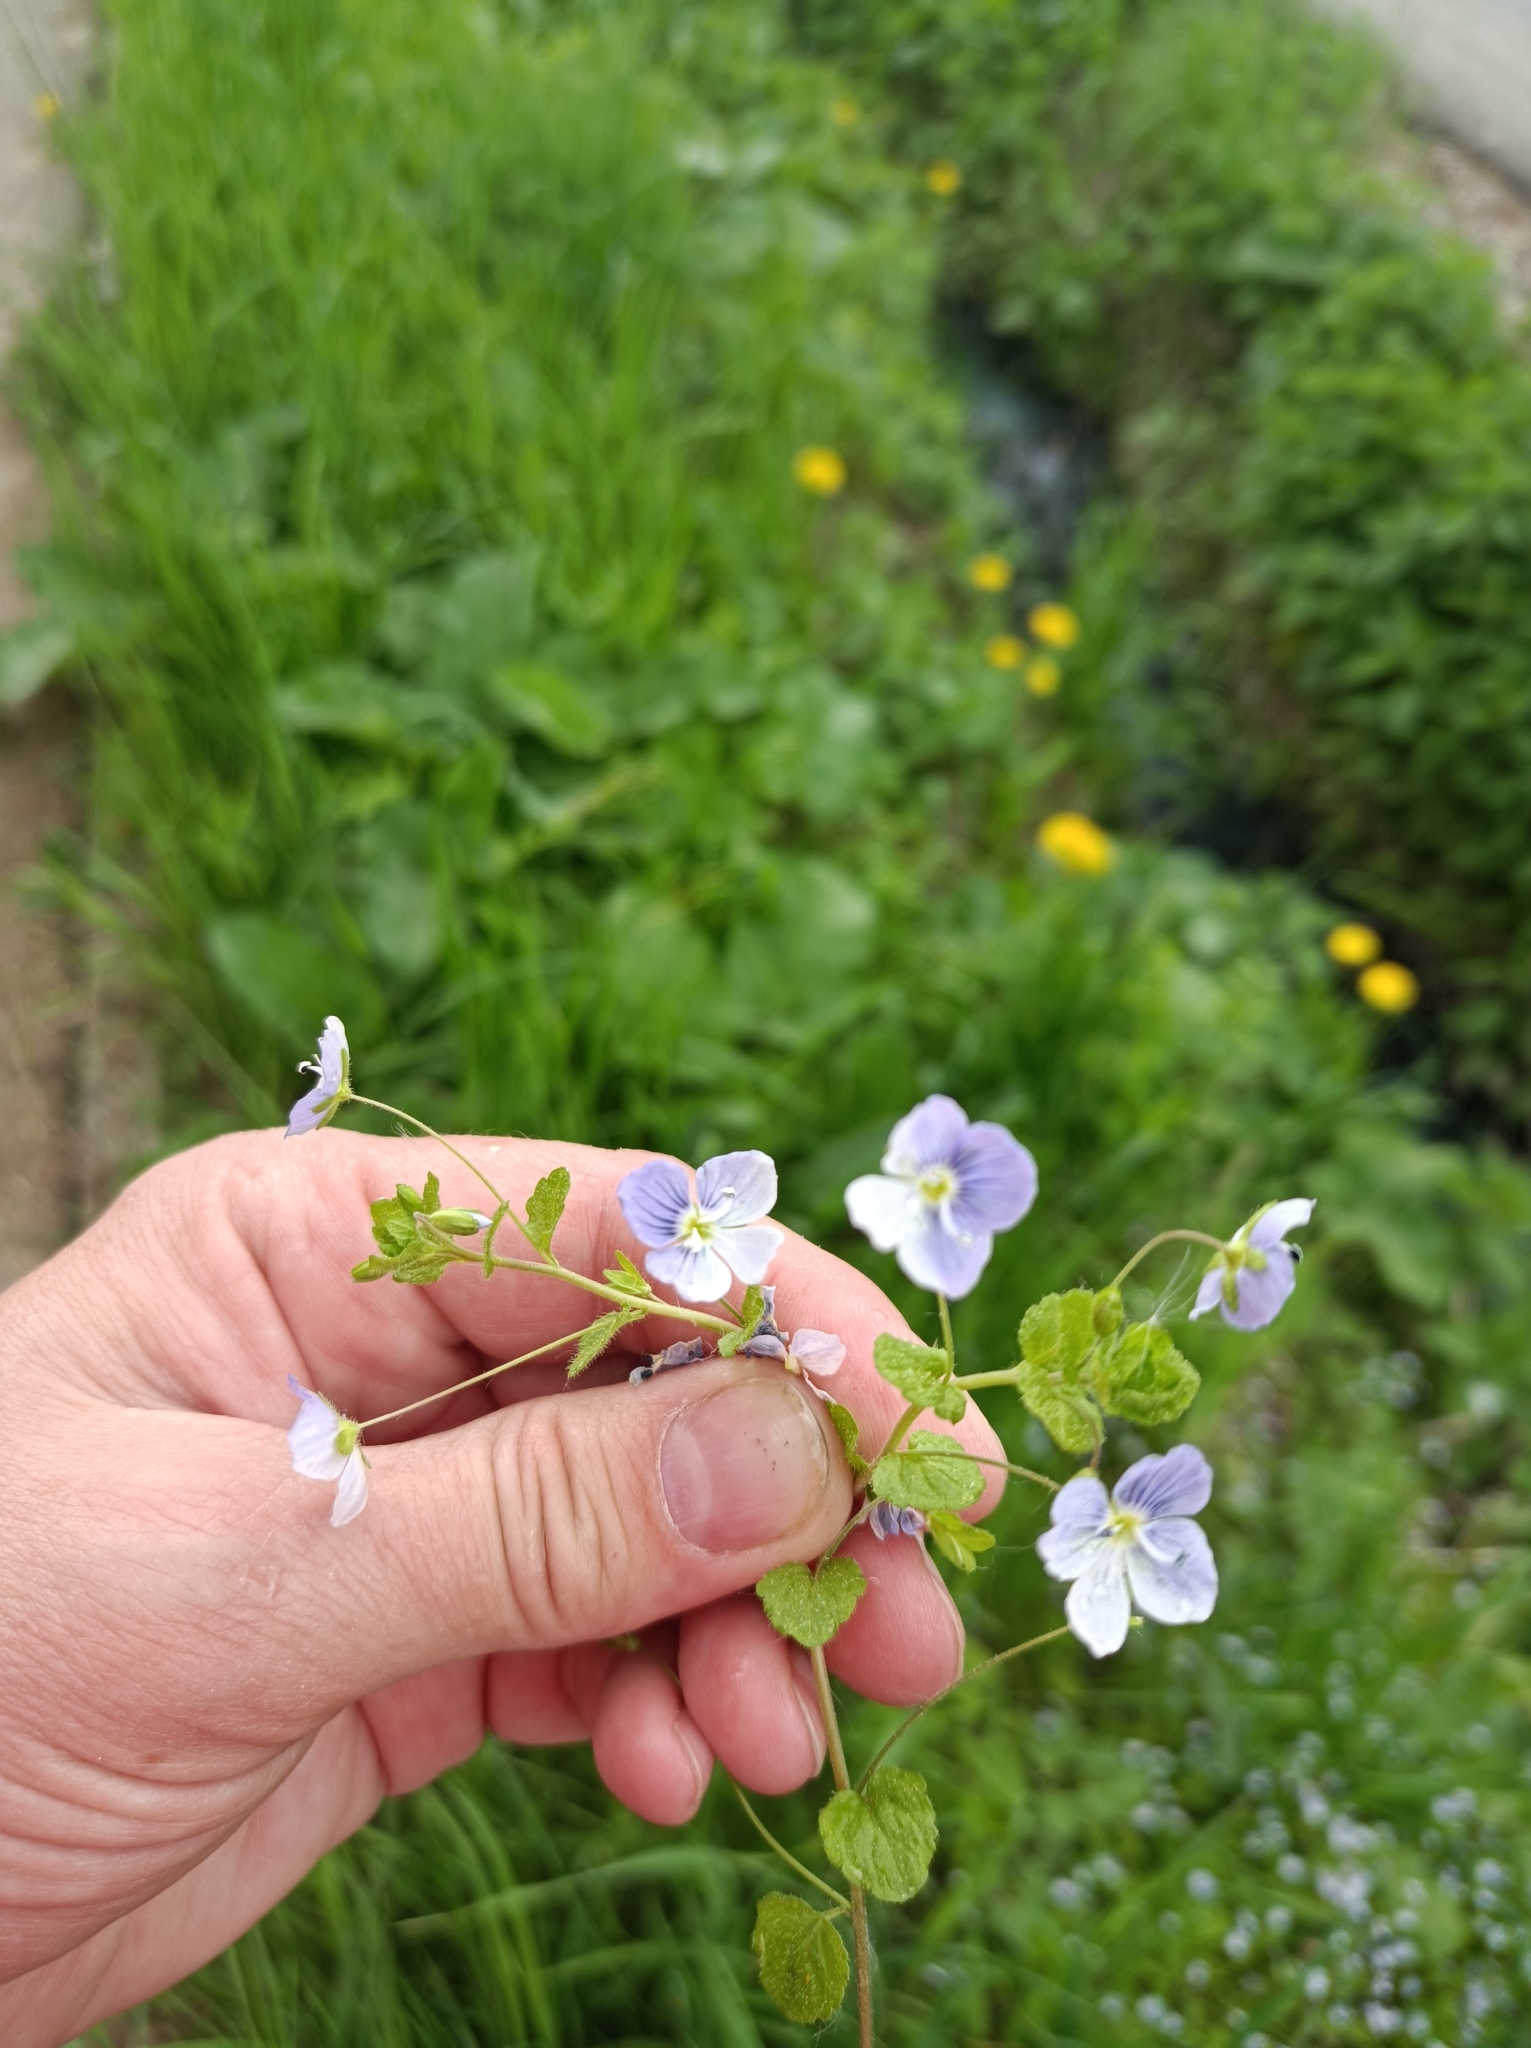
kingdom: Plantae
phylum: Tracheophyta
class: Magnoliopsida
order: Lamiales
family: Plantaginaceae
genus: Veronica
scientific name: Veronica filiformis
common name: Slender speedwell
